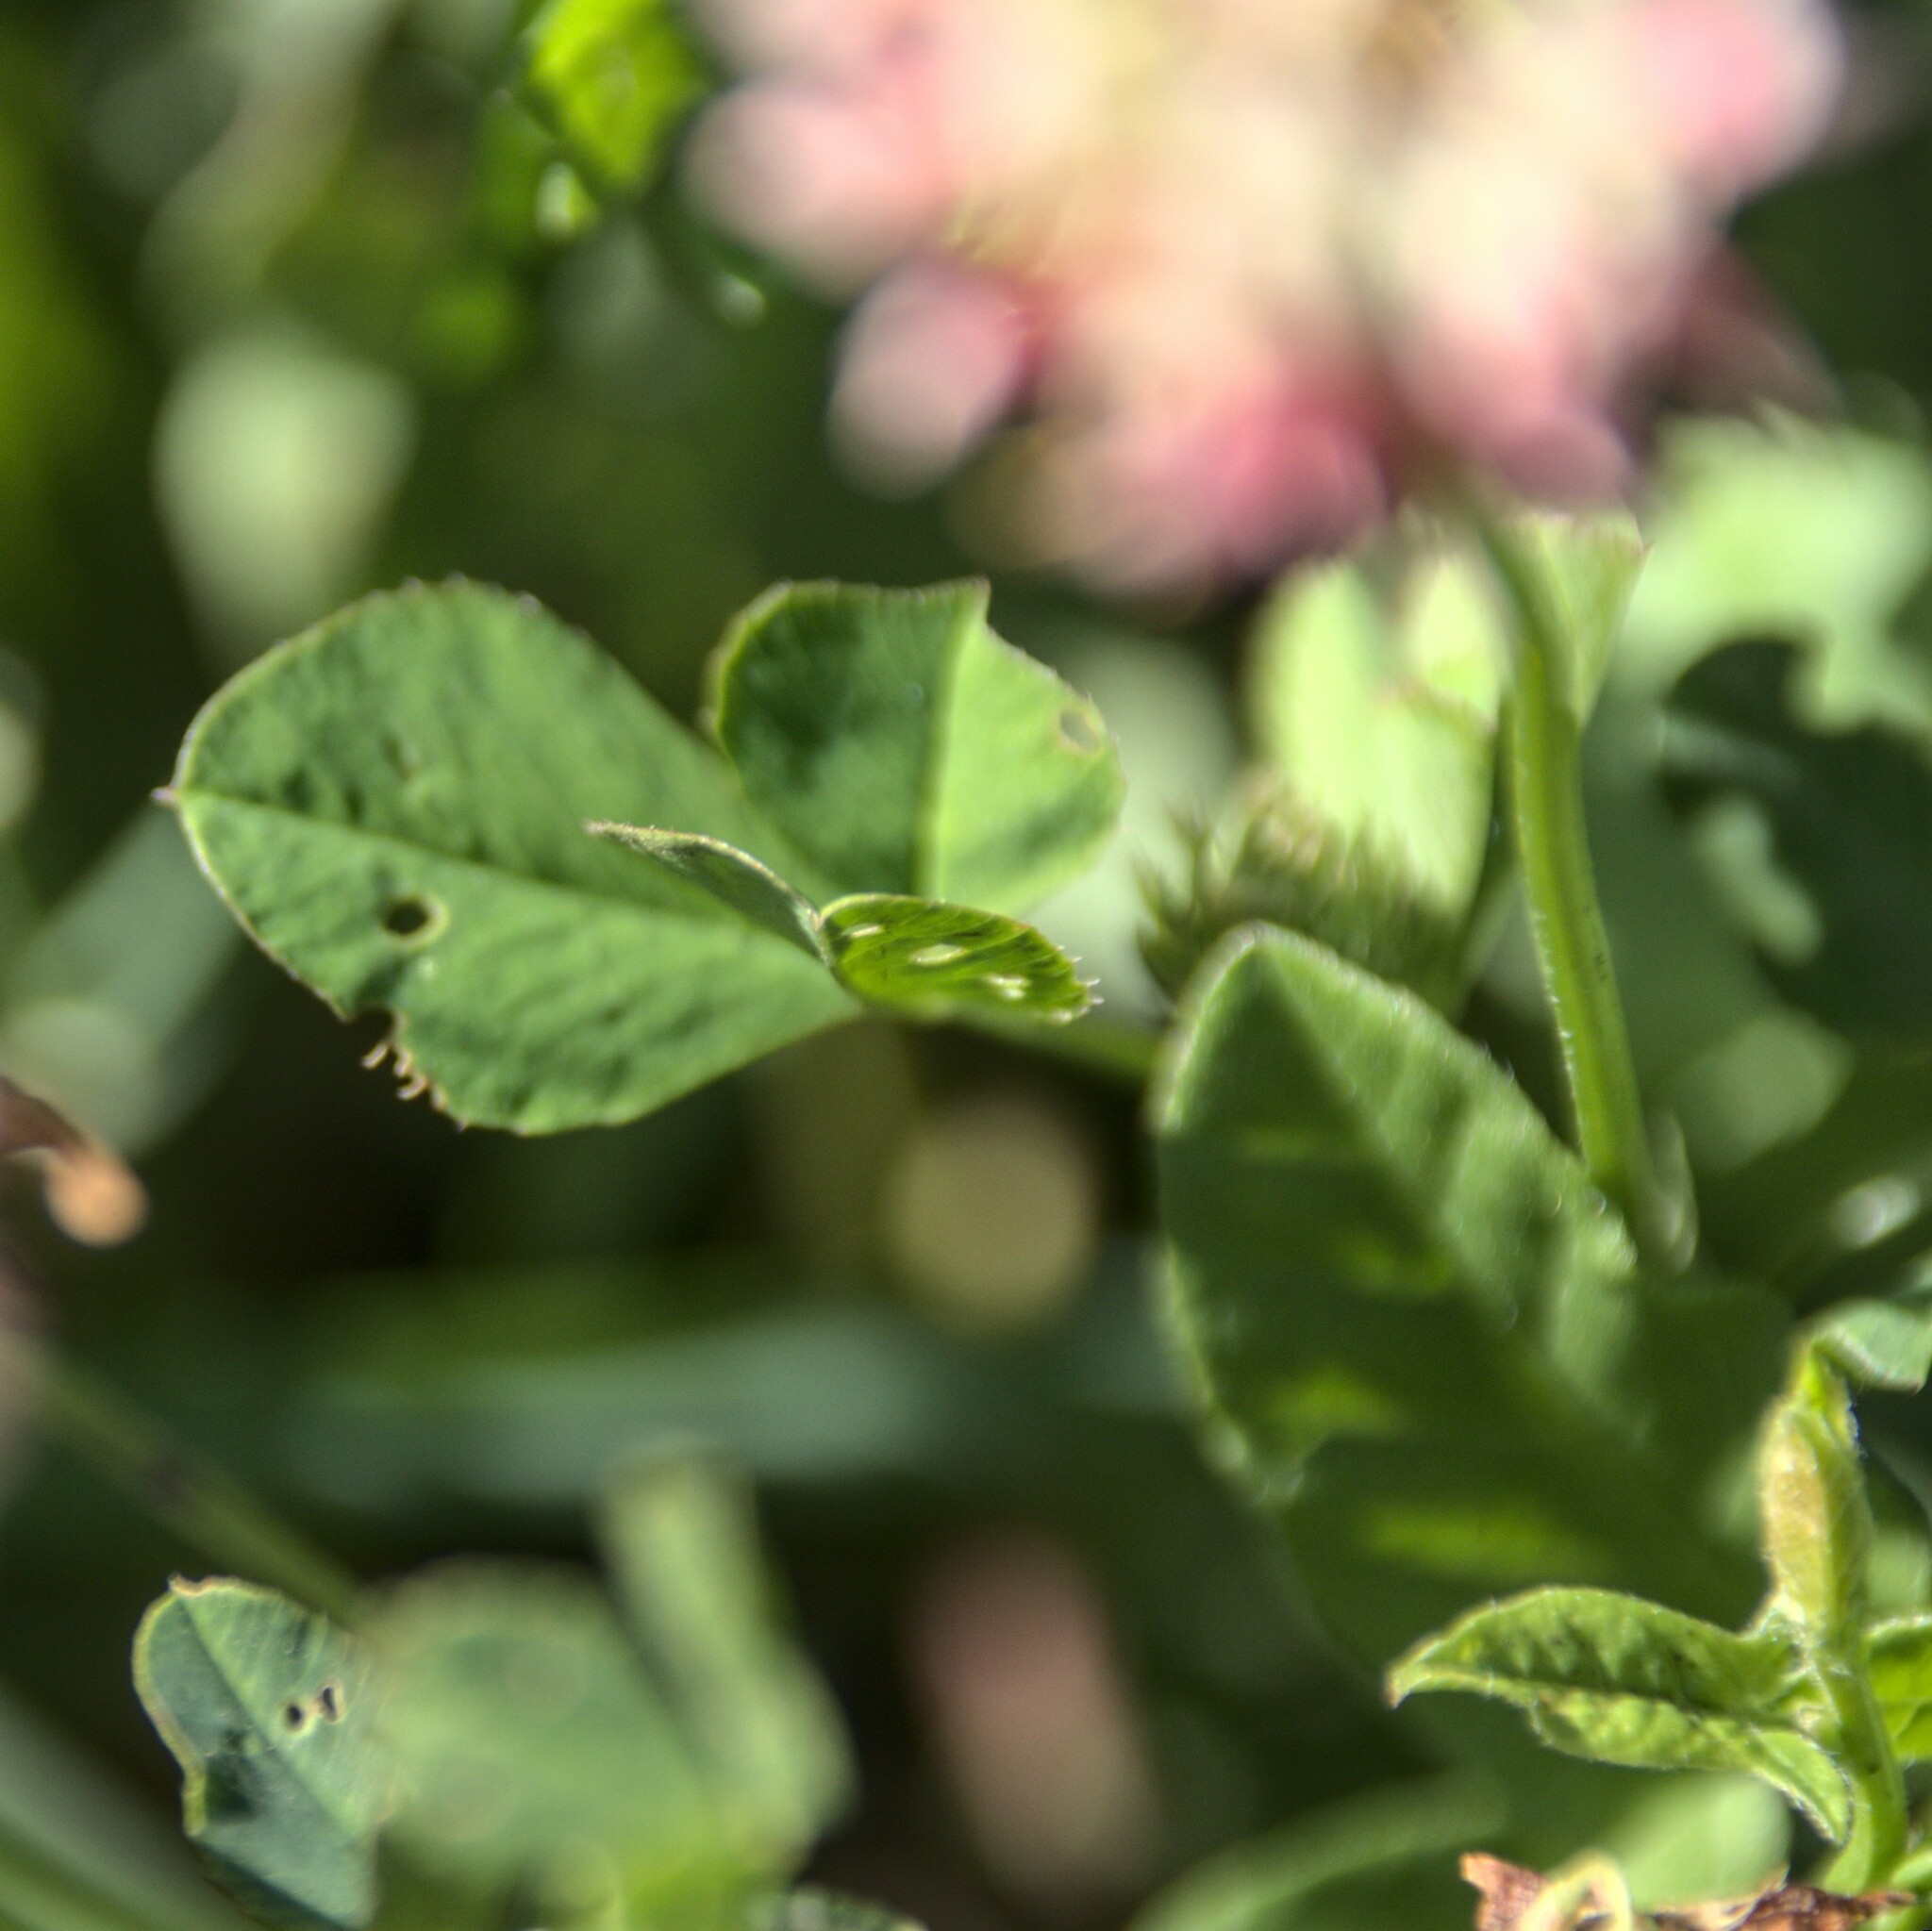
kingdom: Plantae
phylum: Tracheophyta
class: Magnoliopsida
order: Fabales
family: Fabaceae
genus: Trifolium
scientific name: Trifolium hybridum
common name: Alsike clover
